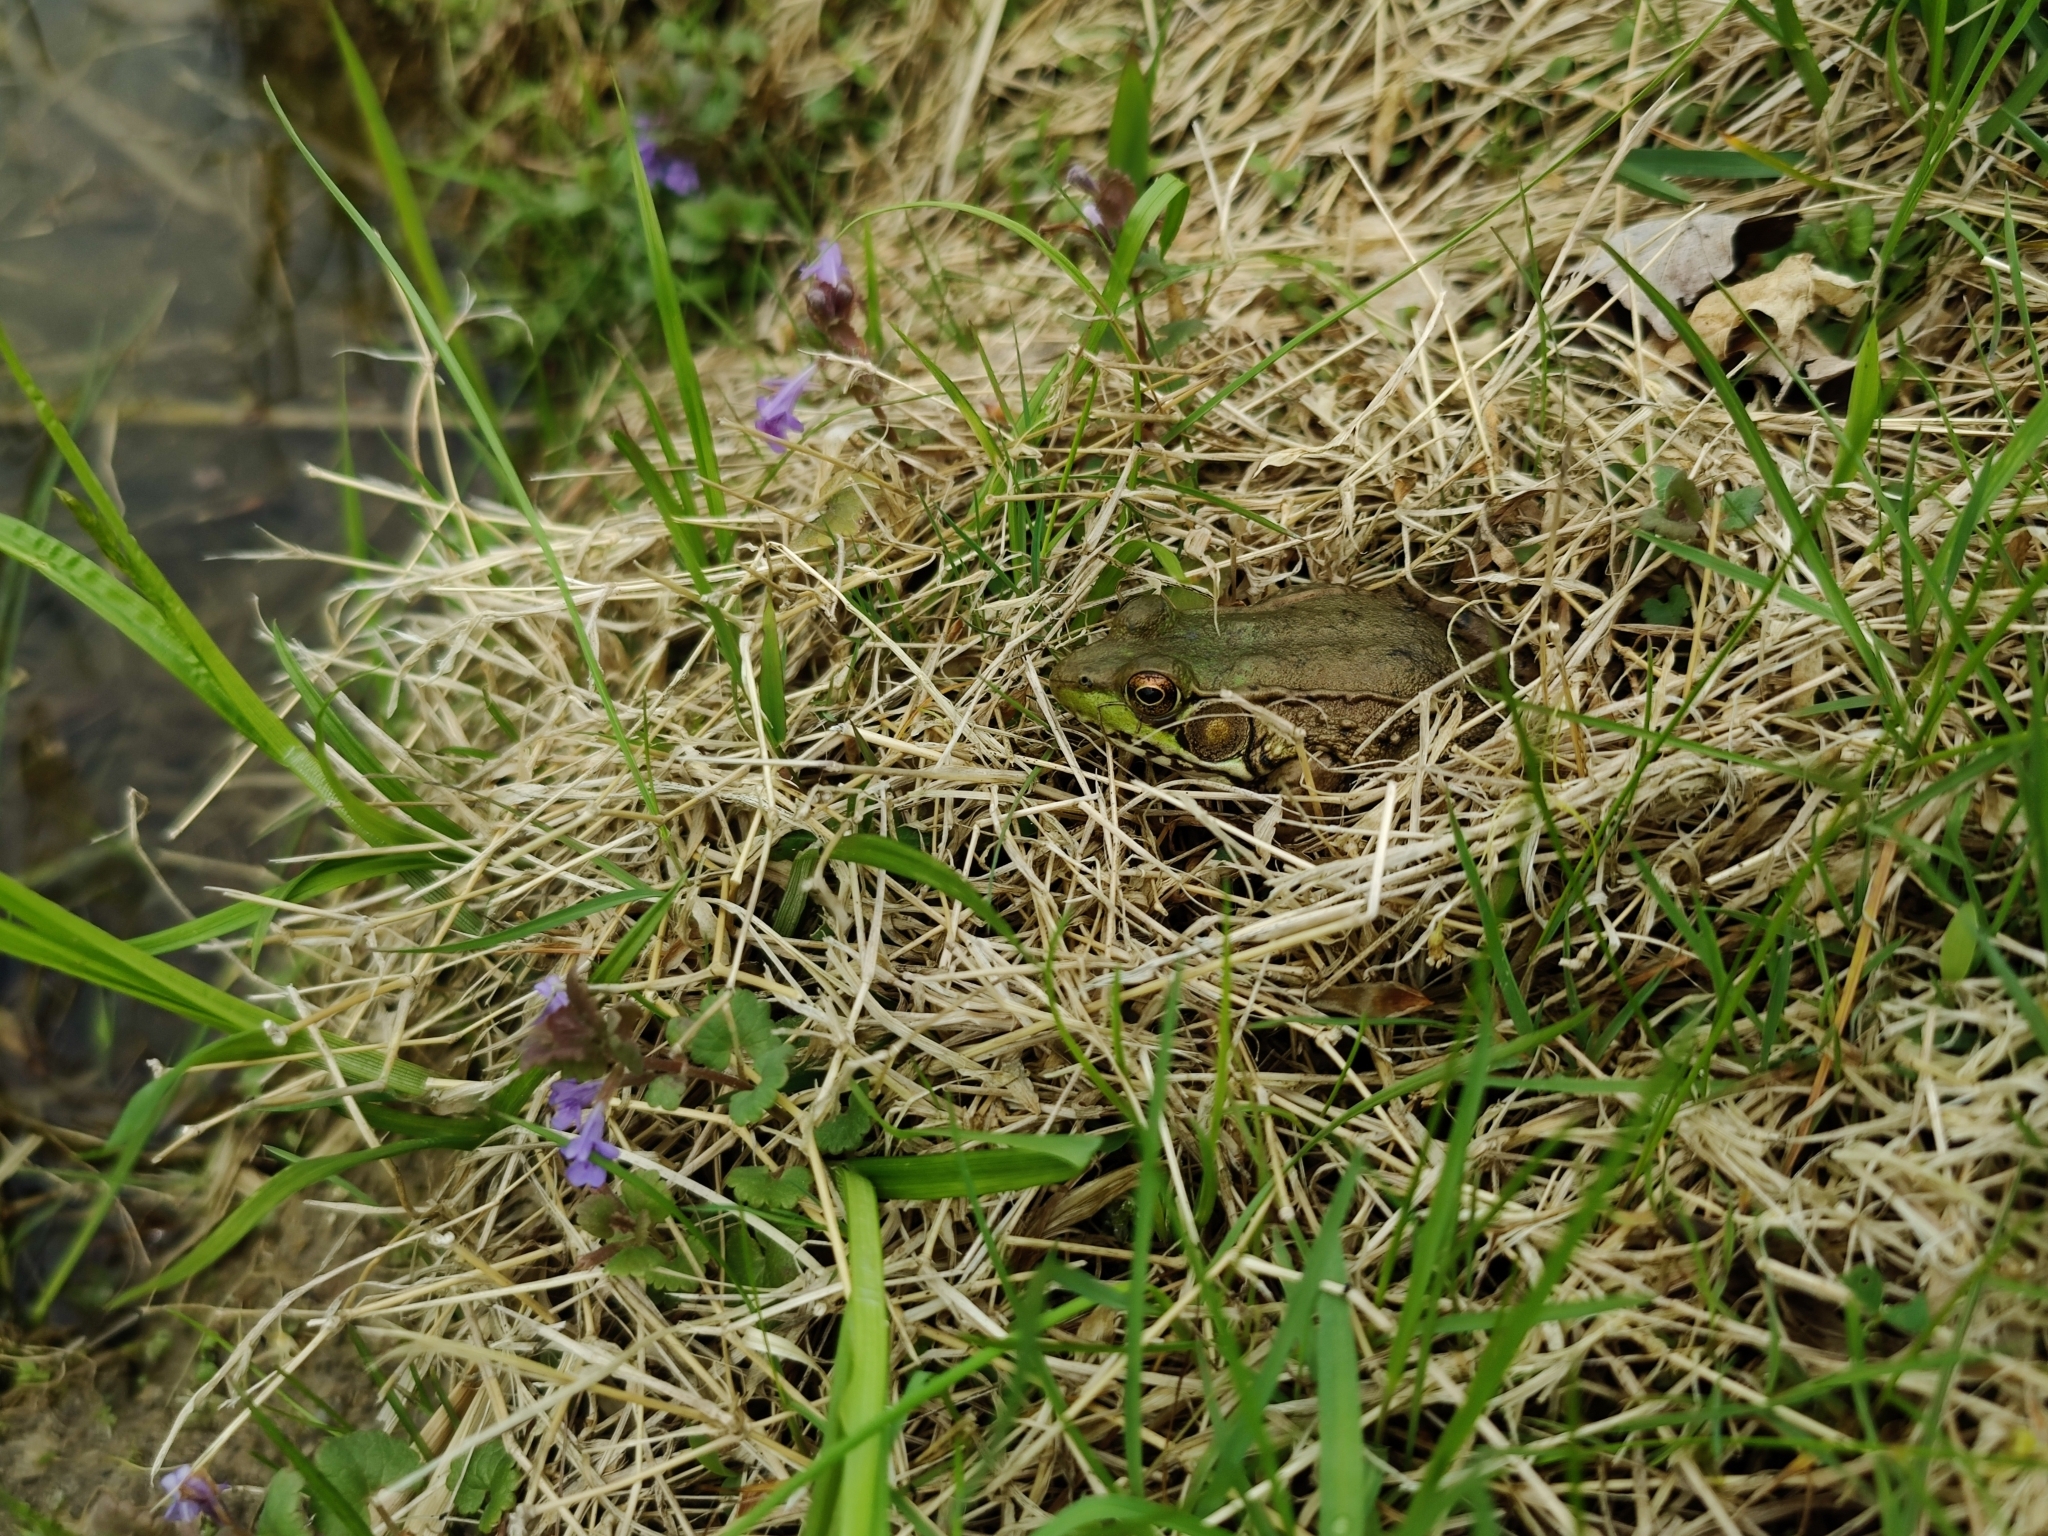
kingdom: Animalia
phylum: Chordata
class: Amphibia
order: Anura
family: Ranidae
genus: Lithobates
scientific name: Lithobates clamitans
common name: Green frog
